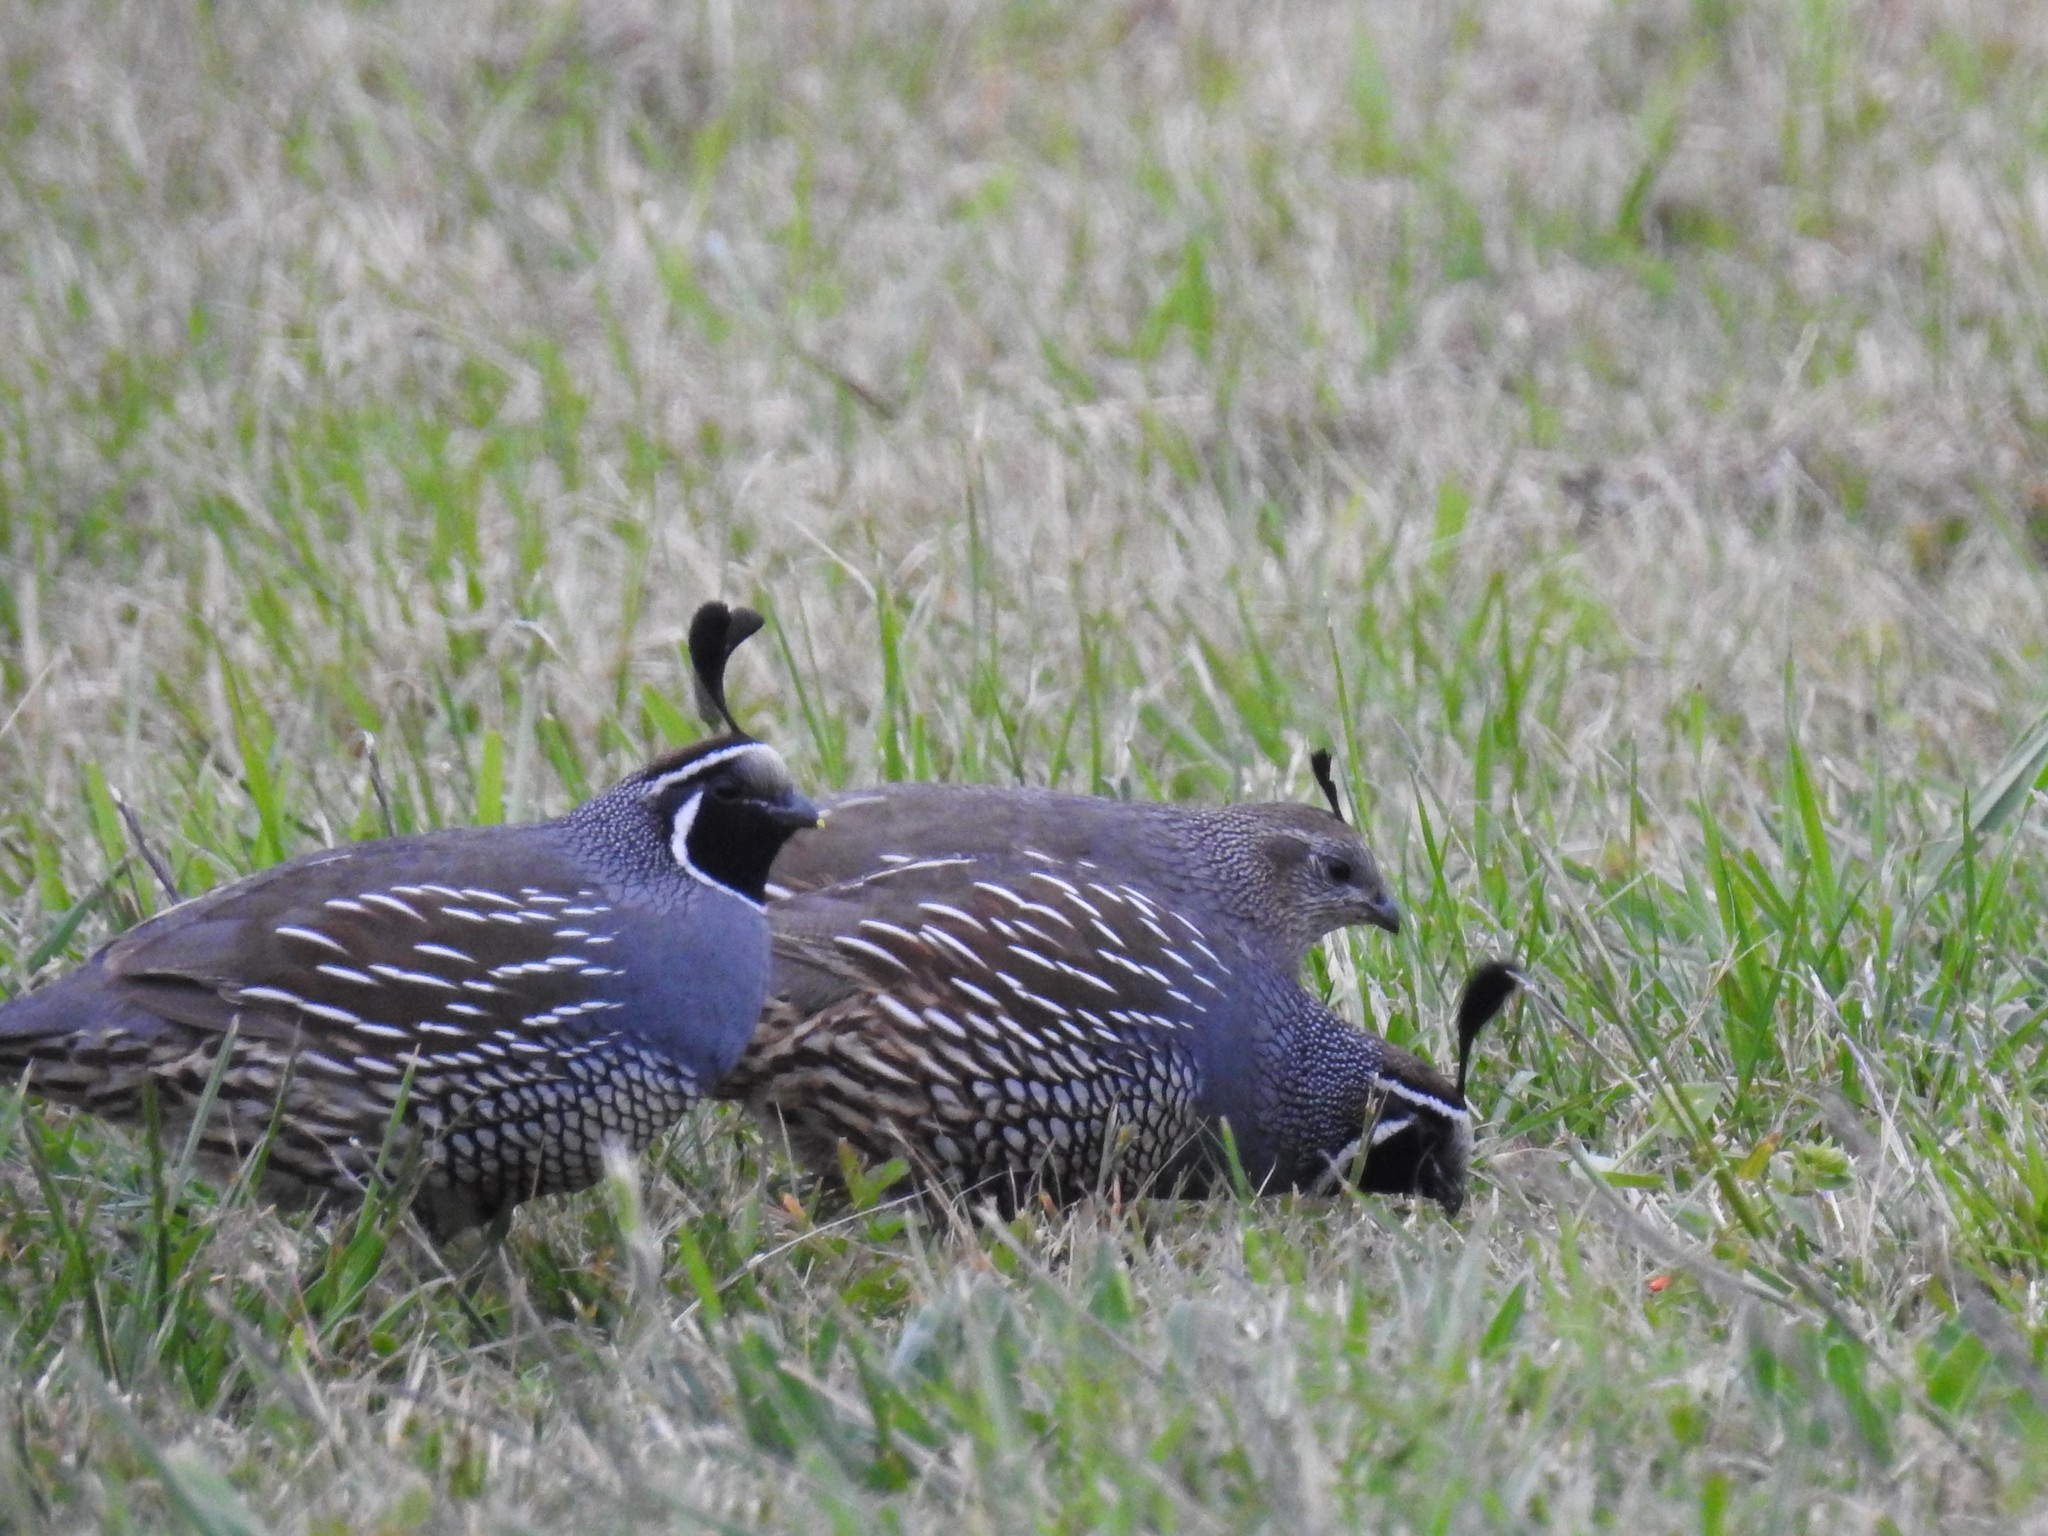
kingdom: Animalia
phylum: Chordata
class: Aves
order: Galliformes
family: Odontophoridae
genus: Callipepla
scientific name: Callipepla californica
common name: California quail
